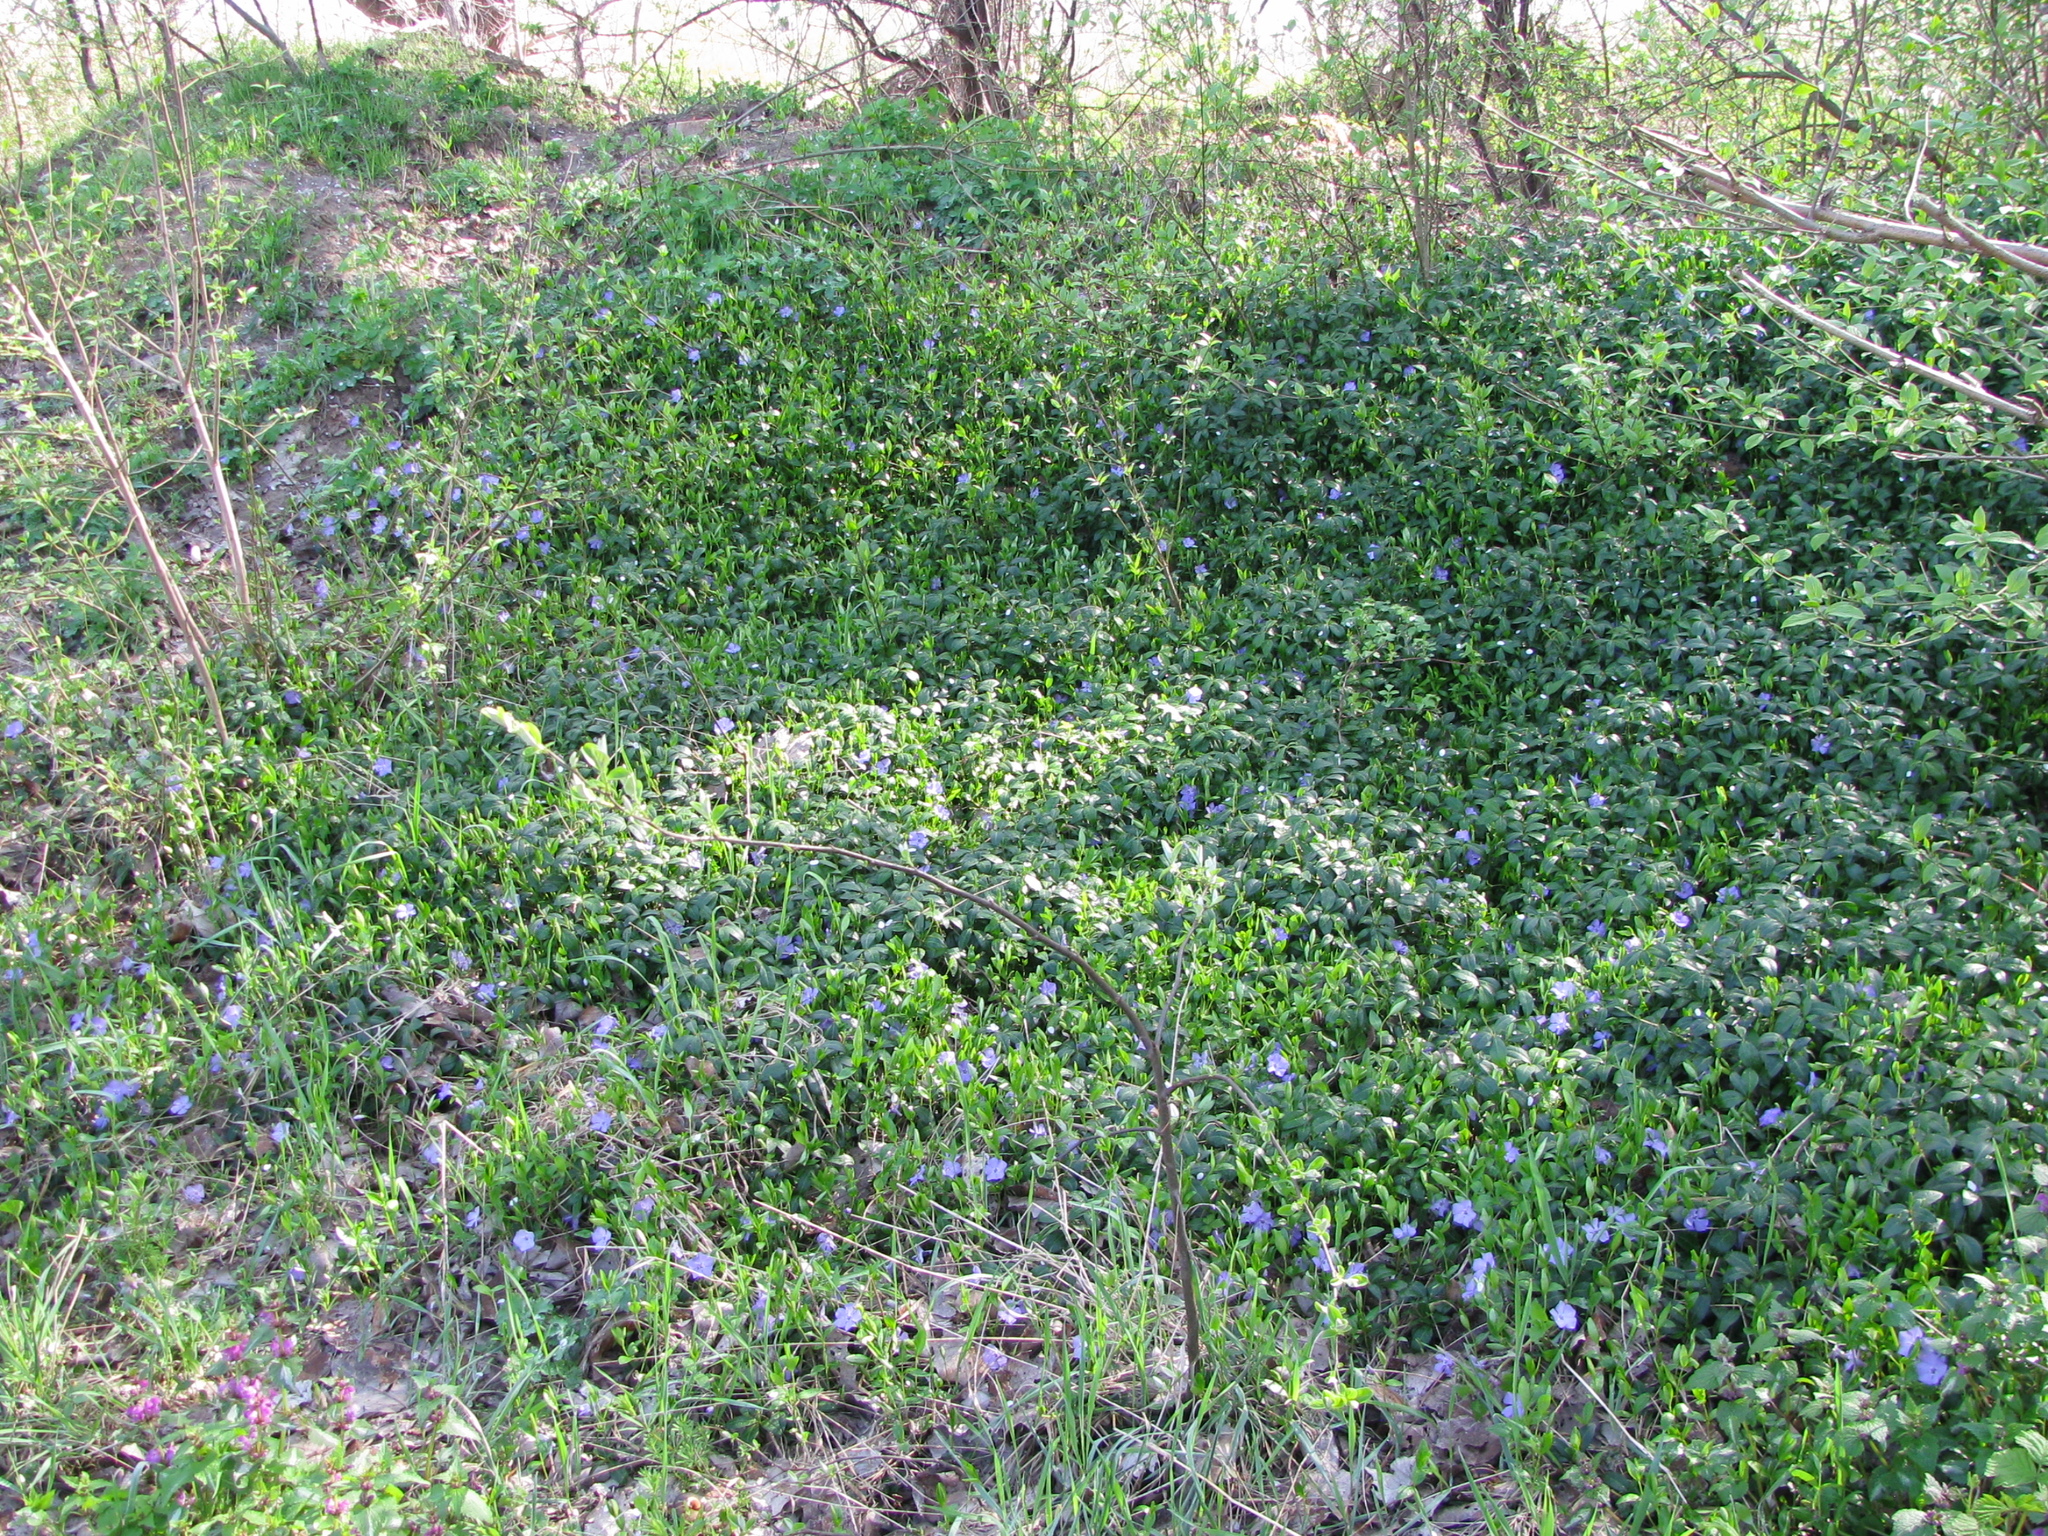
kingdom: Plantae
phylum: Tracheophyta
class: Magnoliopsida
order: Gentianales
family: Apocynaceae
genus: Vinca
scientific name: Vinca minor
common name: Lesser periwinkle
